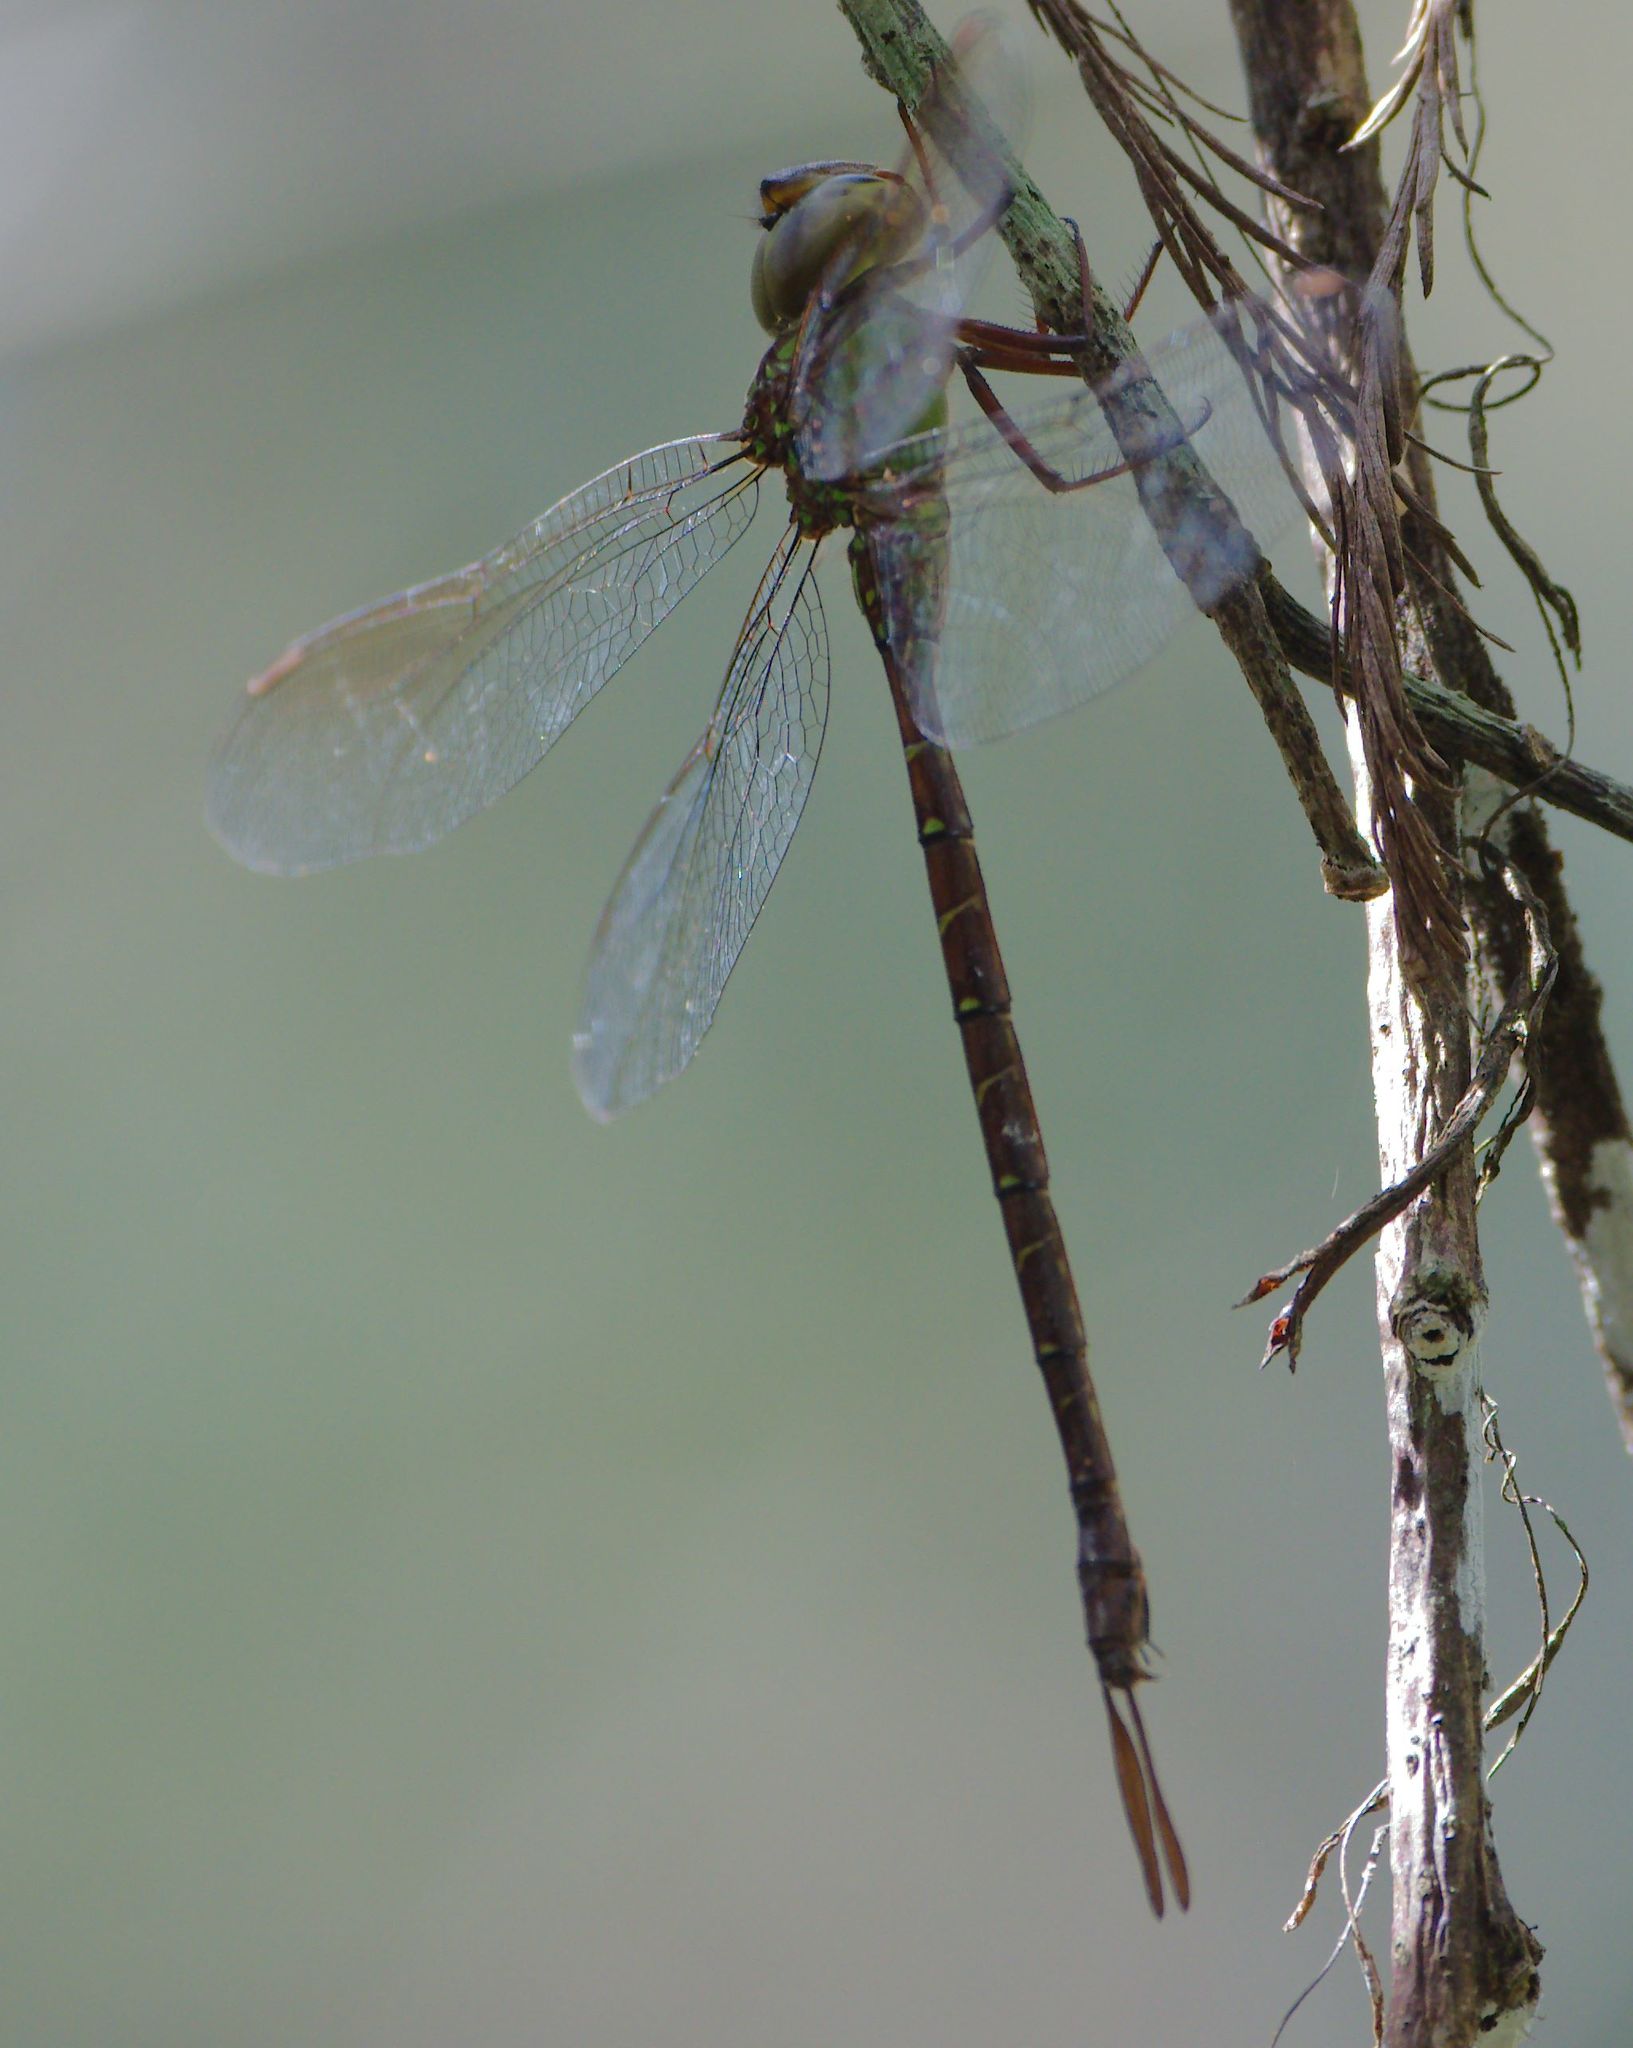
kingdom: Animalia
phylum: Arthropoda
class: Insecta
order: Odonata
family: Aeshnidae
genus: Triacanthagyna
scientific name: Triacanthagyna trifida
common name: Phantom darner
